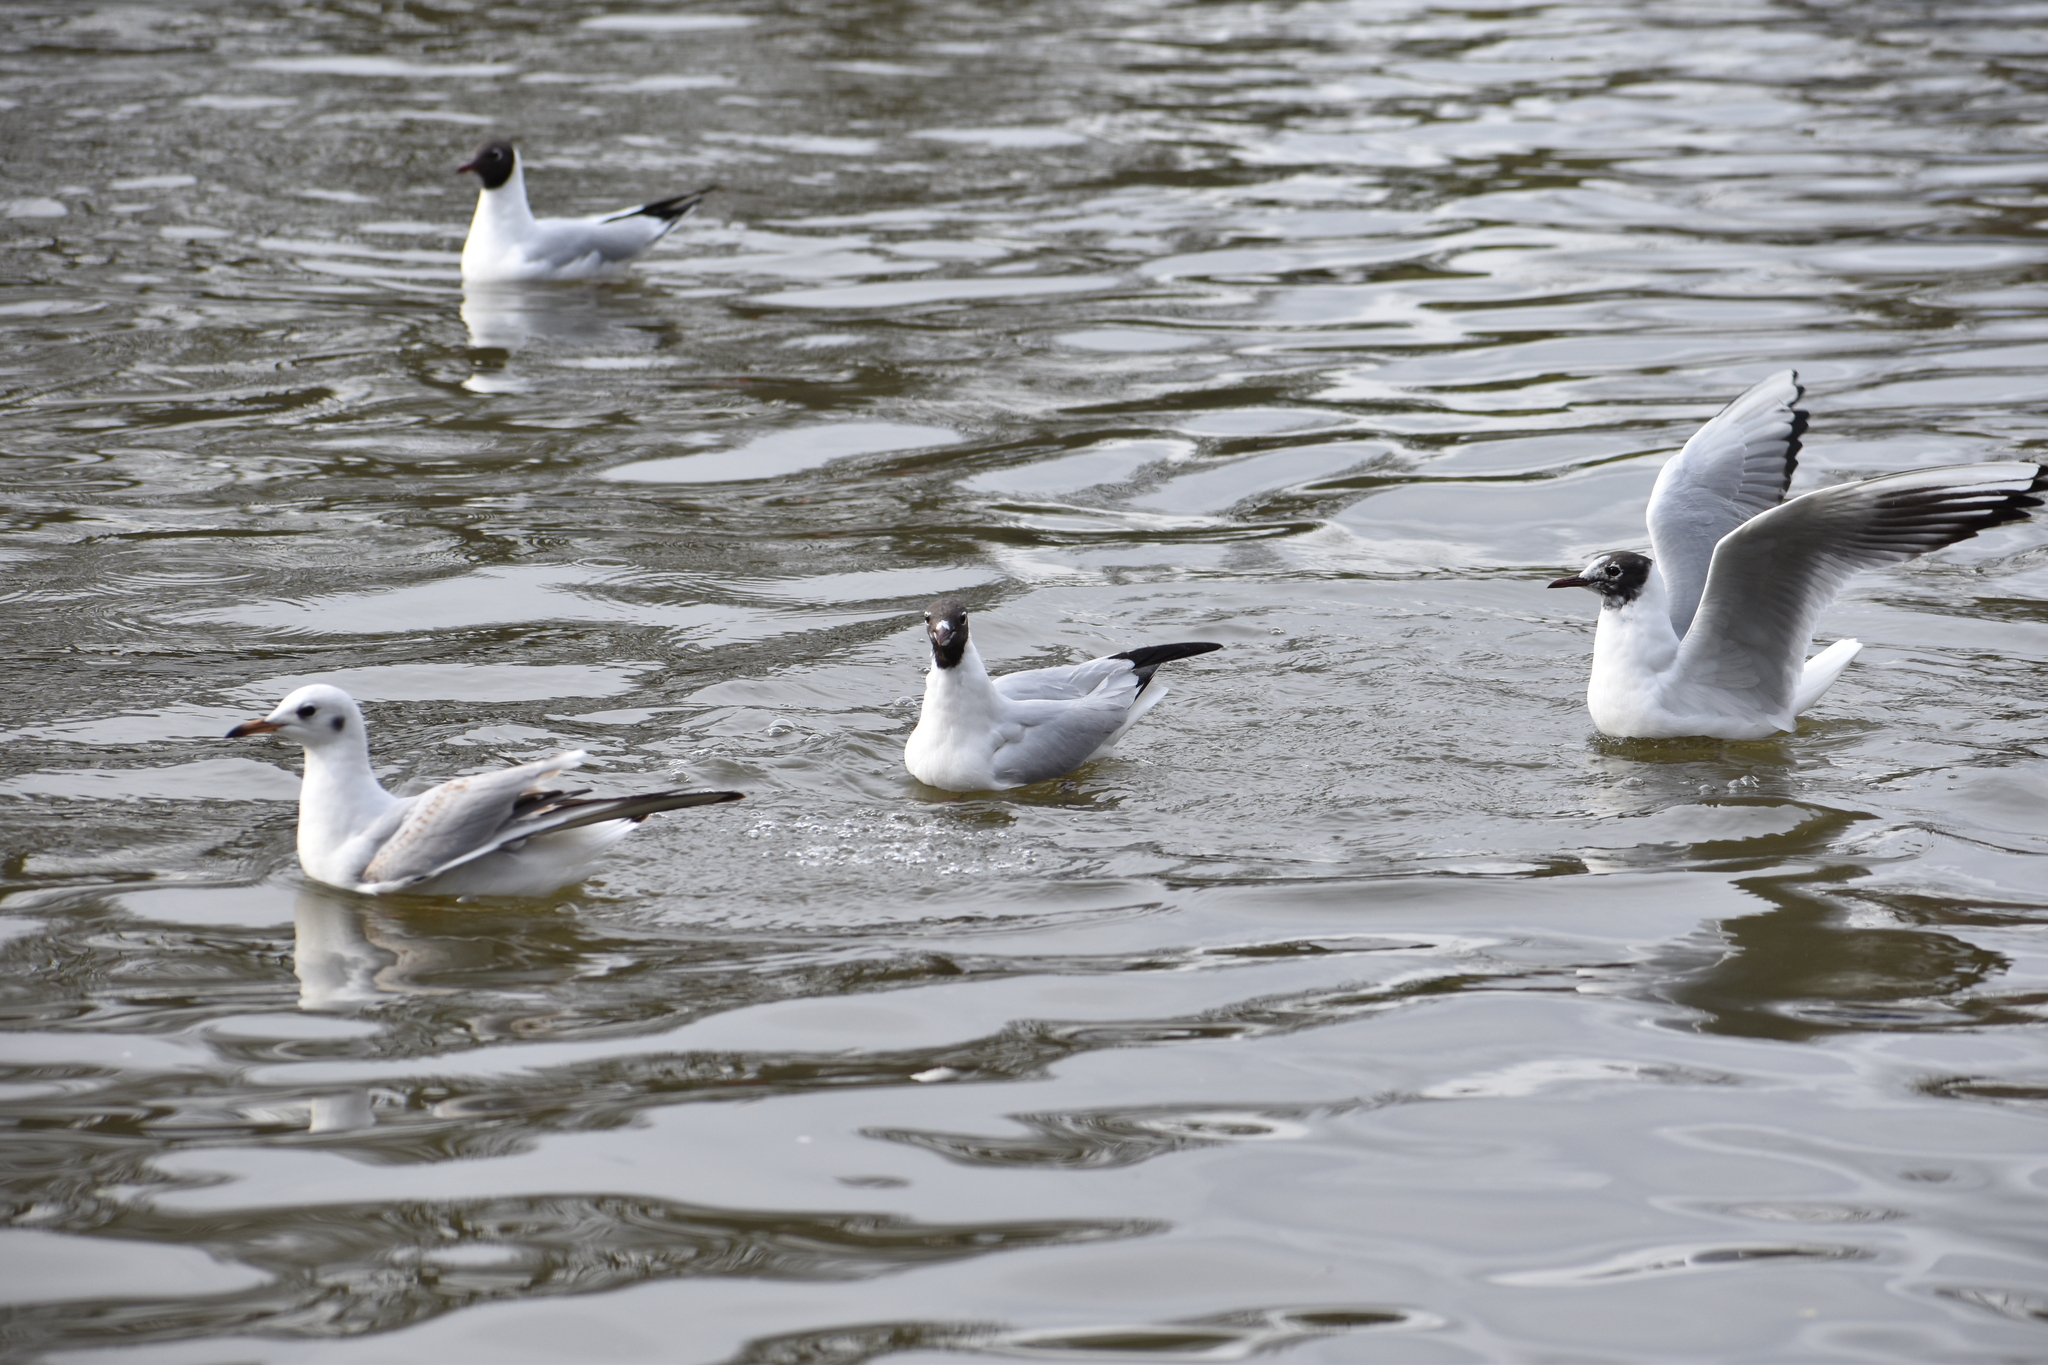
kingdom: Animalia
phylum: Chordata
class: Aves
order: Charadriiformes
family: Laridae
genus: Chroicocephalus
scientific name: Chroicocephalus ridibundus
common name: Black-headed gull
